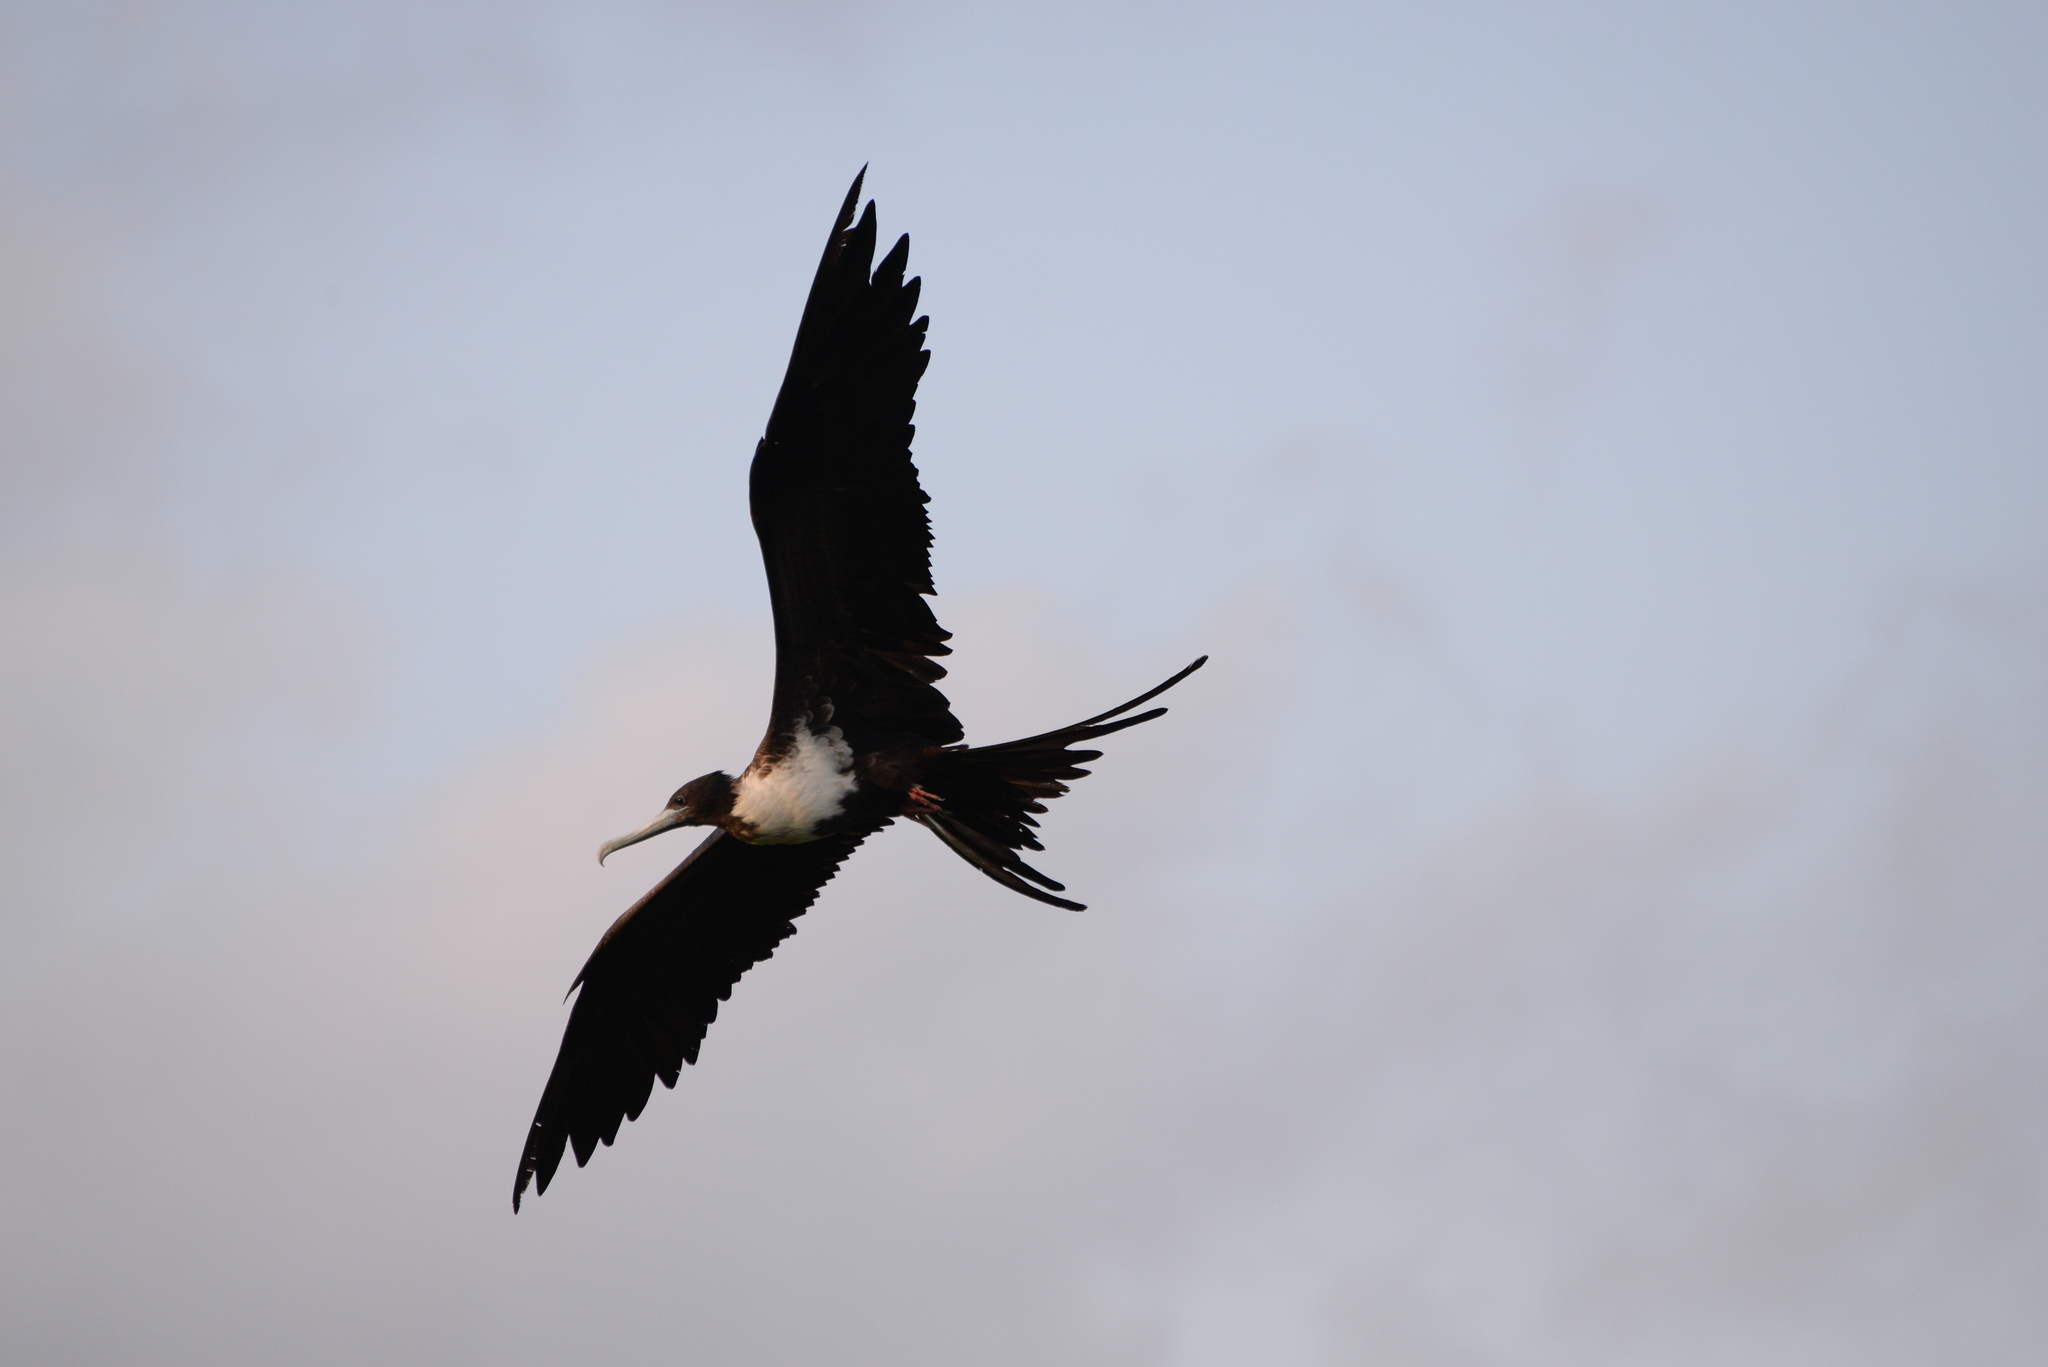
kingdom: Animalia
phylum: Chordata
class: Aves
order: Suliformes
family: Fregatidae
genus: Fregata
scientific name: Fregata magnificens
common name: Magnificent frigatebird
